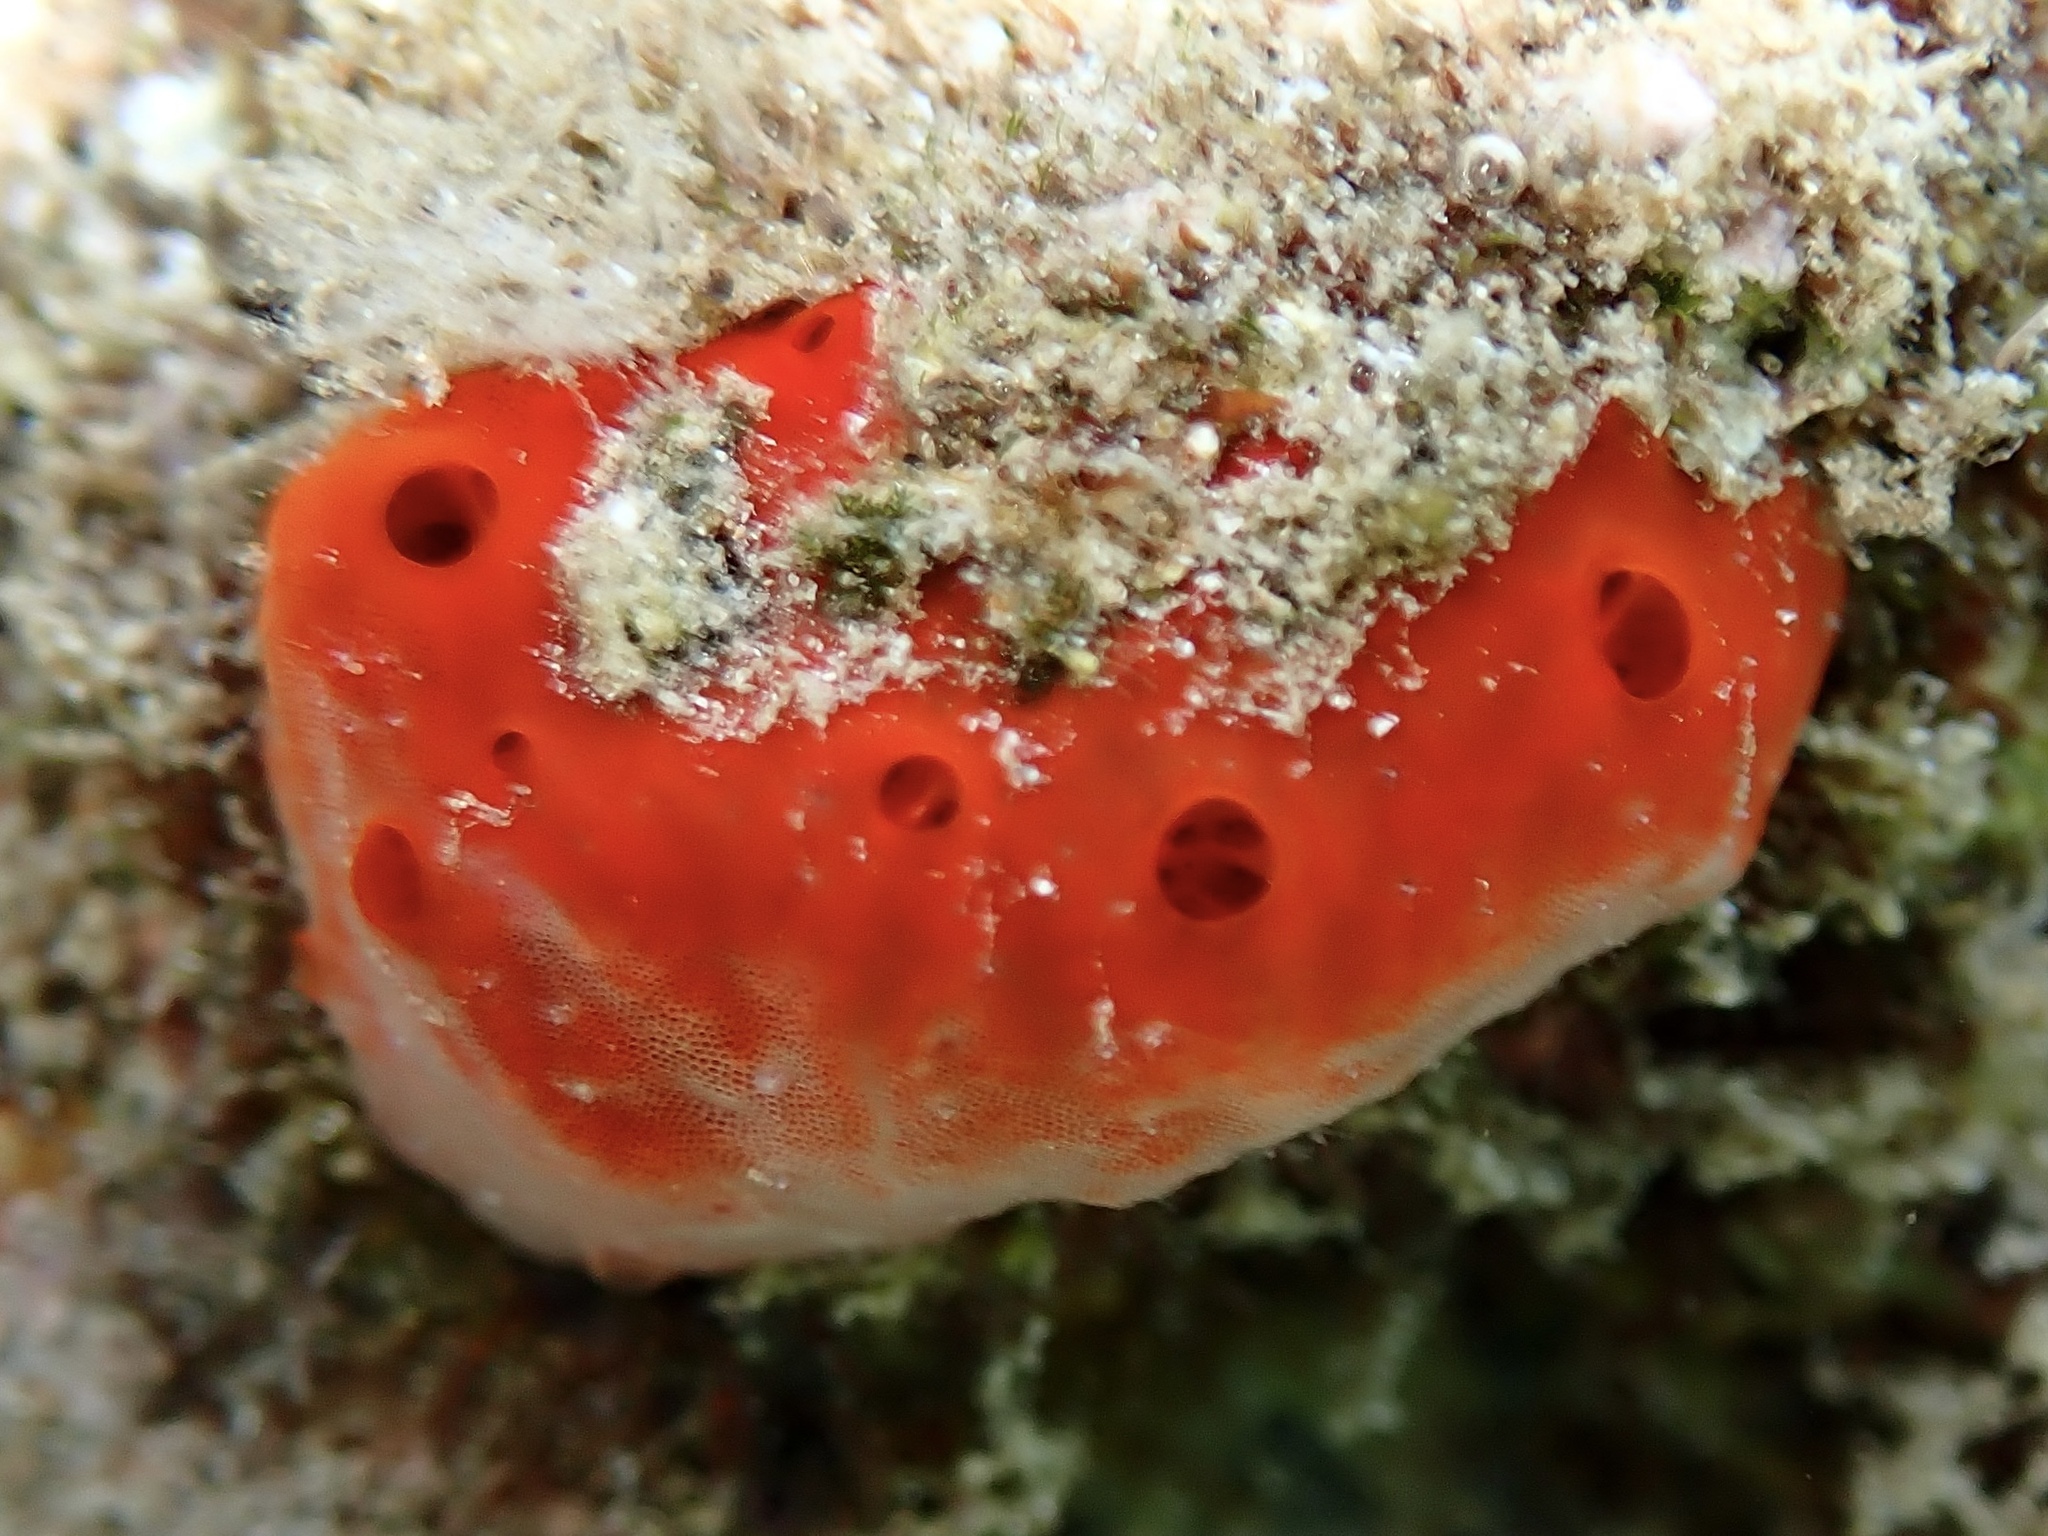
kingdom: Animalia
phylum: Porifera
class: Demospongiae
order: Poecilosclerida
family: Crambeidae
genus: Monanchora
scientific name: Monanchora clathrata
